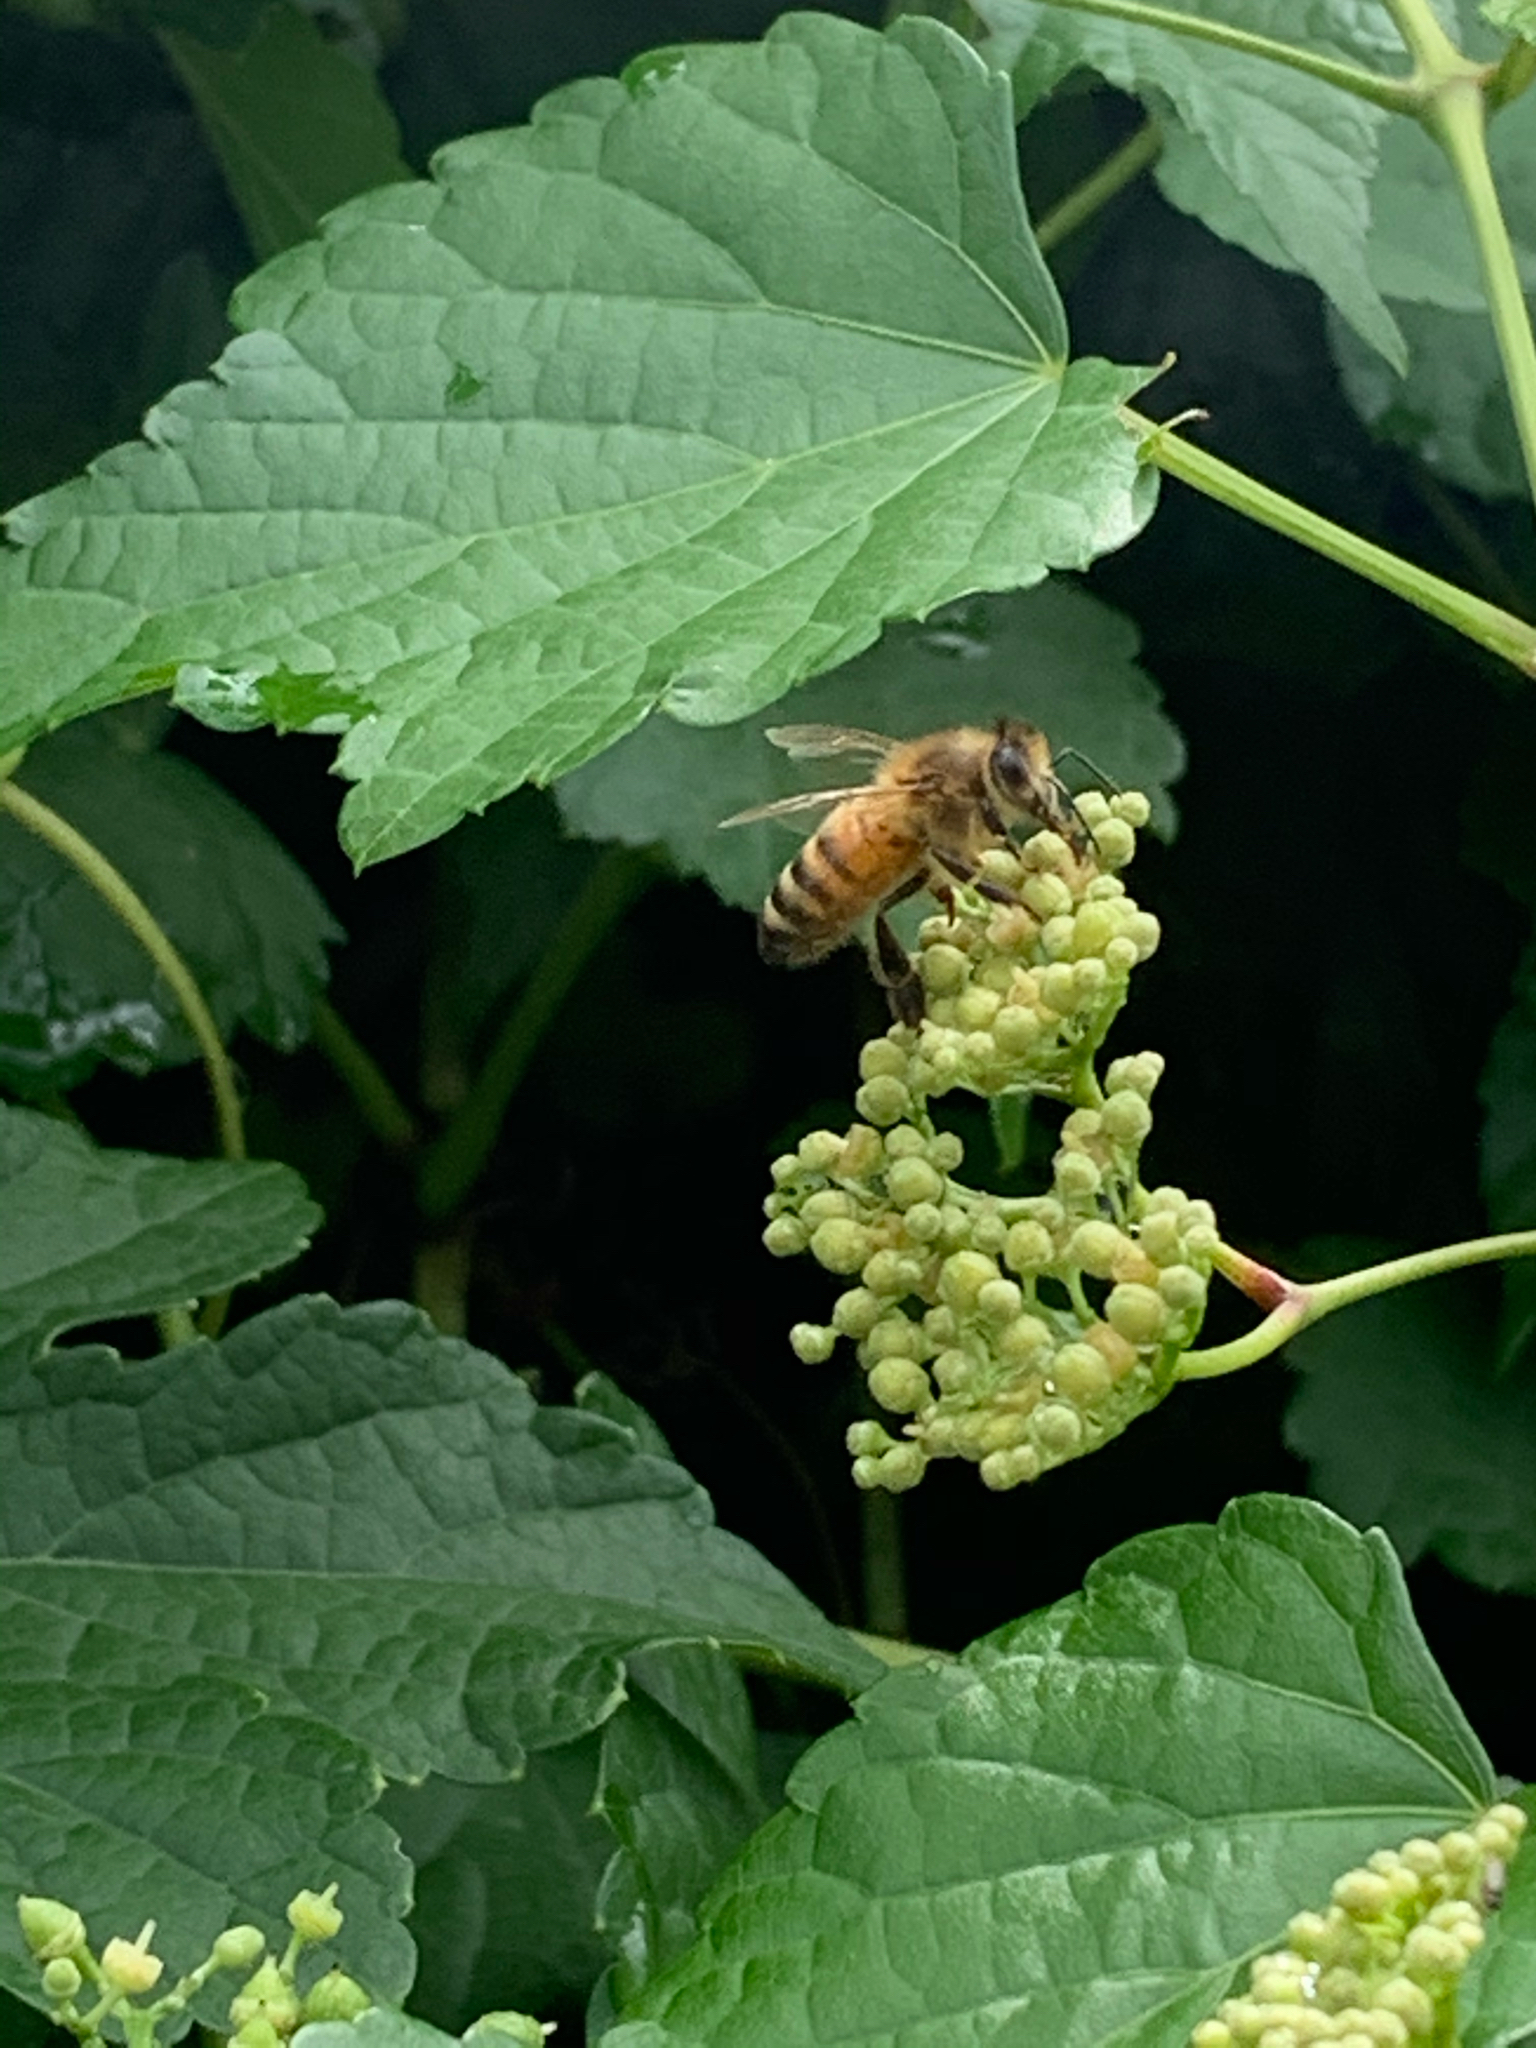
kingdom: Animalia
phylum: Arthropoda
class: Insecta
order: Hymenoptera
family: Apidae
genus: Apis
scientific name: Apis mellifera
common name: Honey bee
